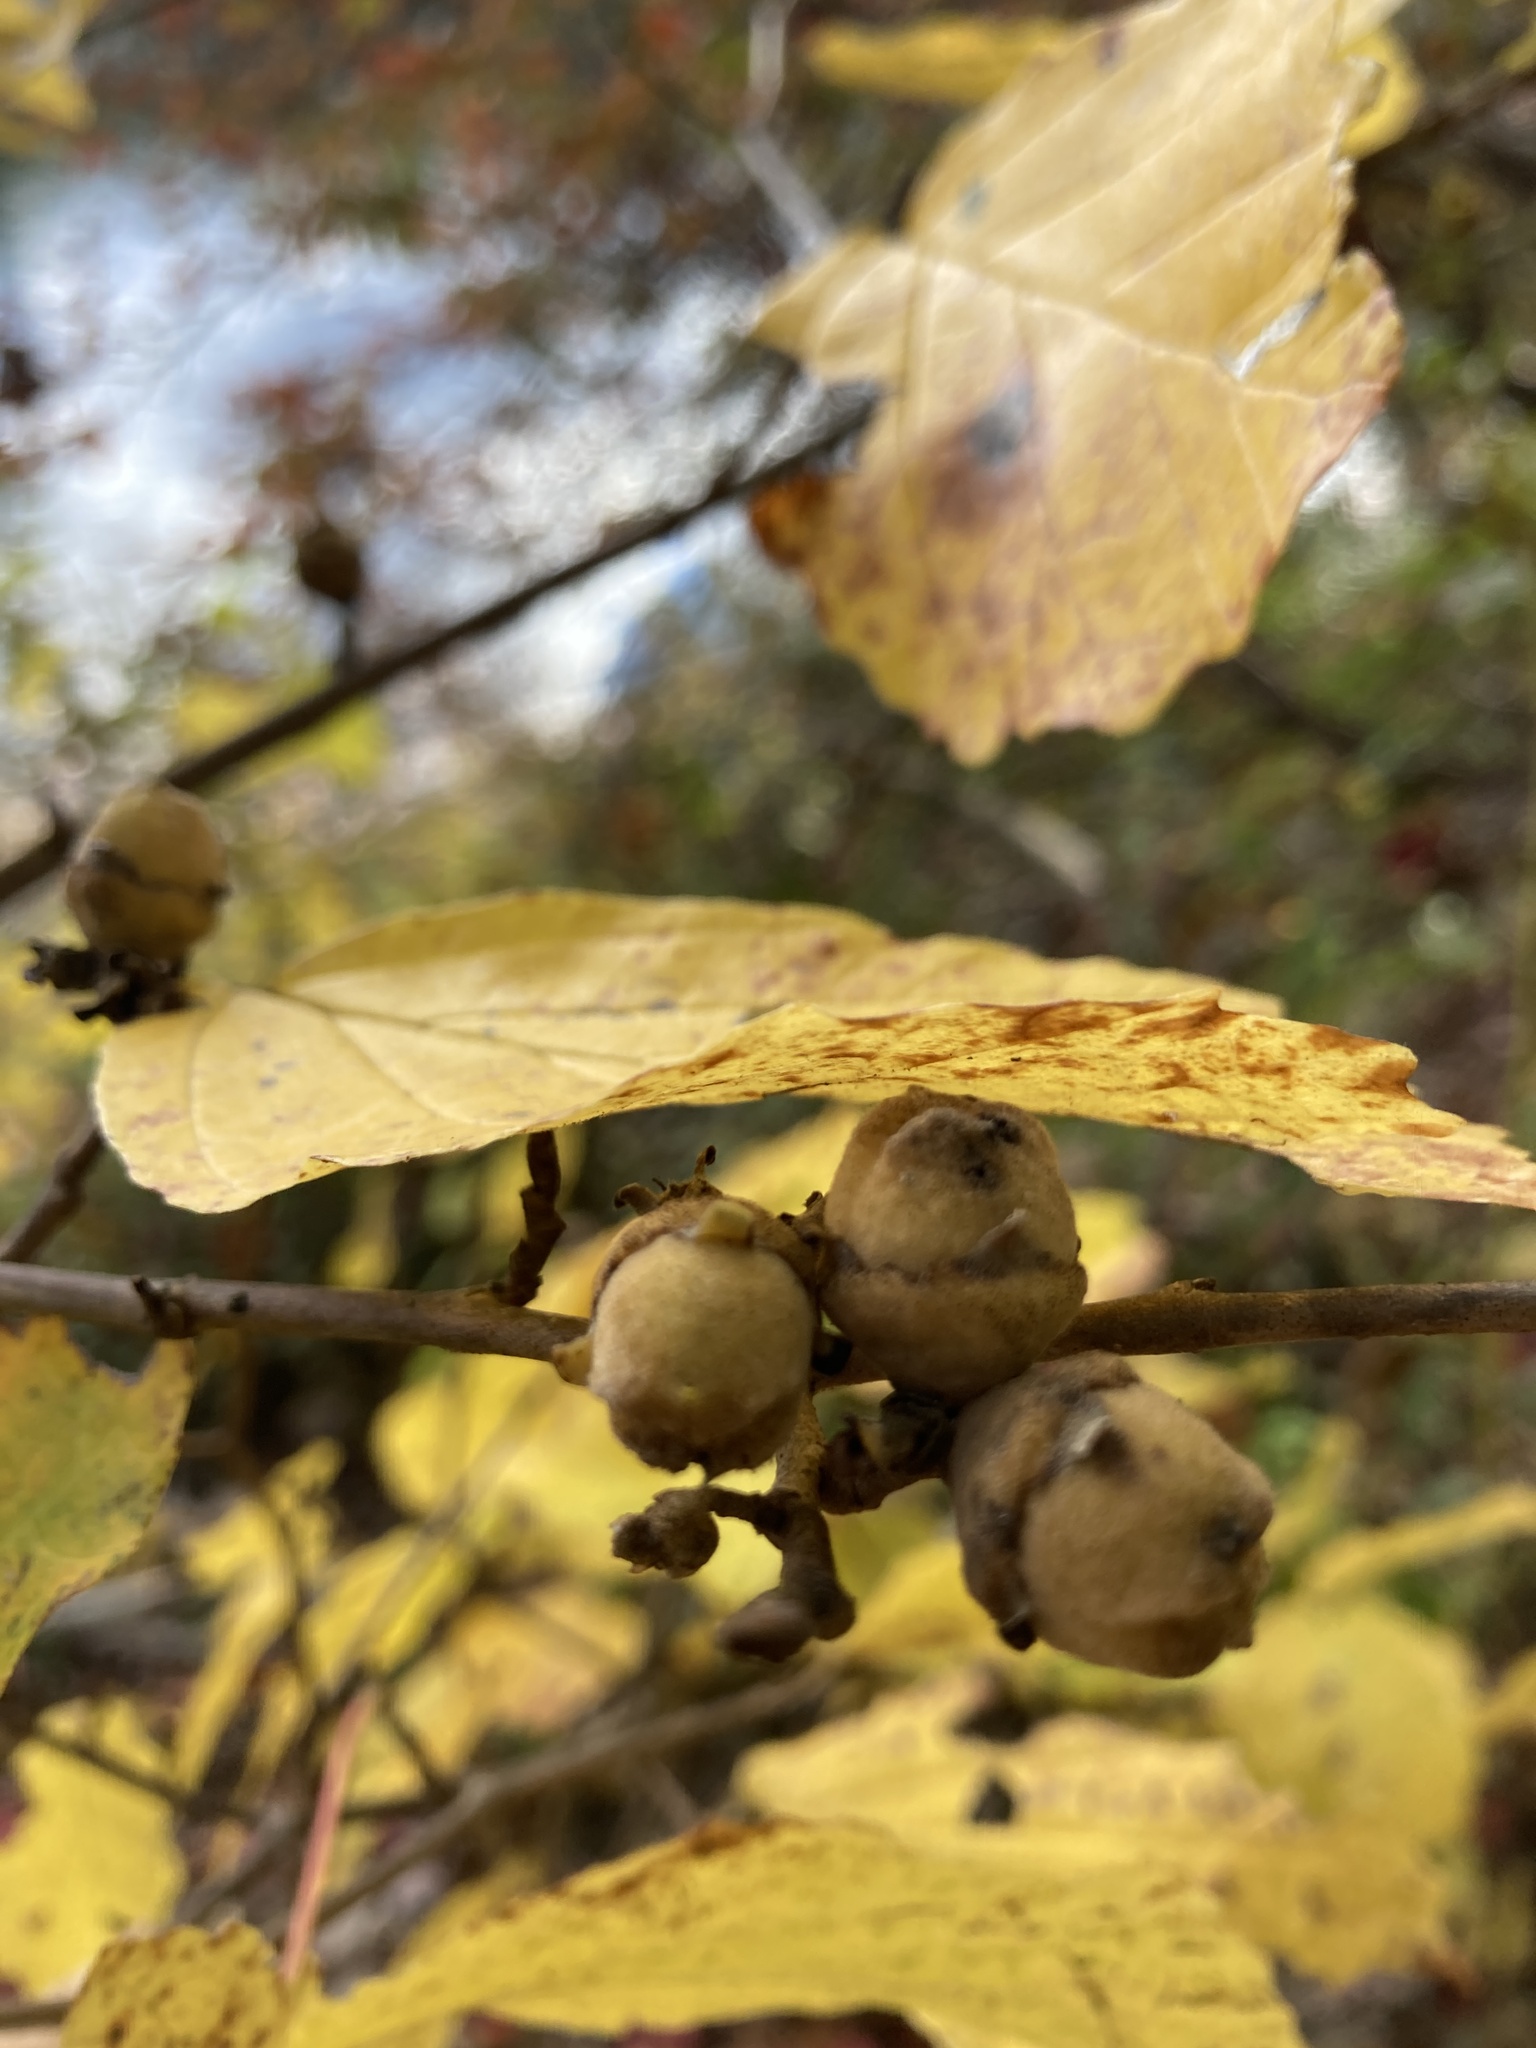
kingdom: Plantae
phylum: Tracheophyta
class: Magnoliopsida
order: Saxifragales
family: Hamamelidaceae
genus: Hamamelis
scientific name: Hamamelis virginiana
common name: Witch-hazel
